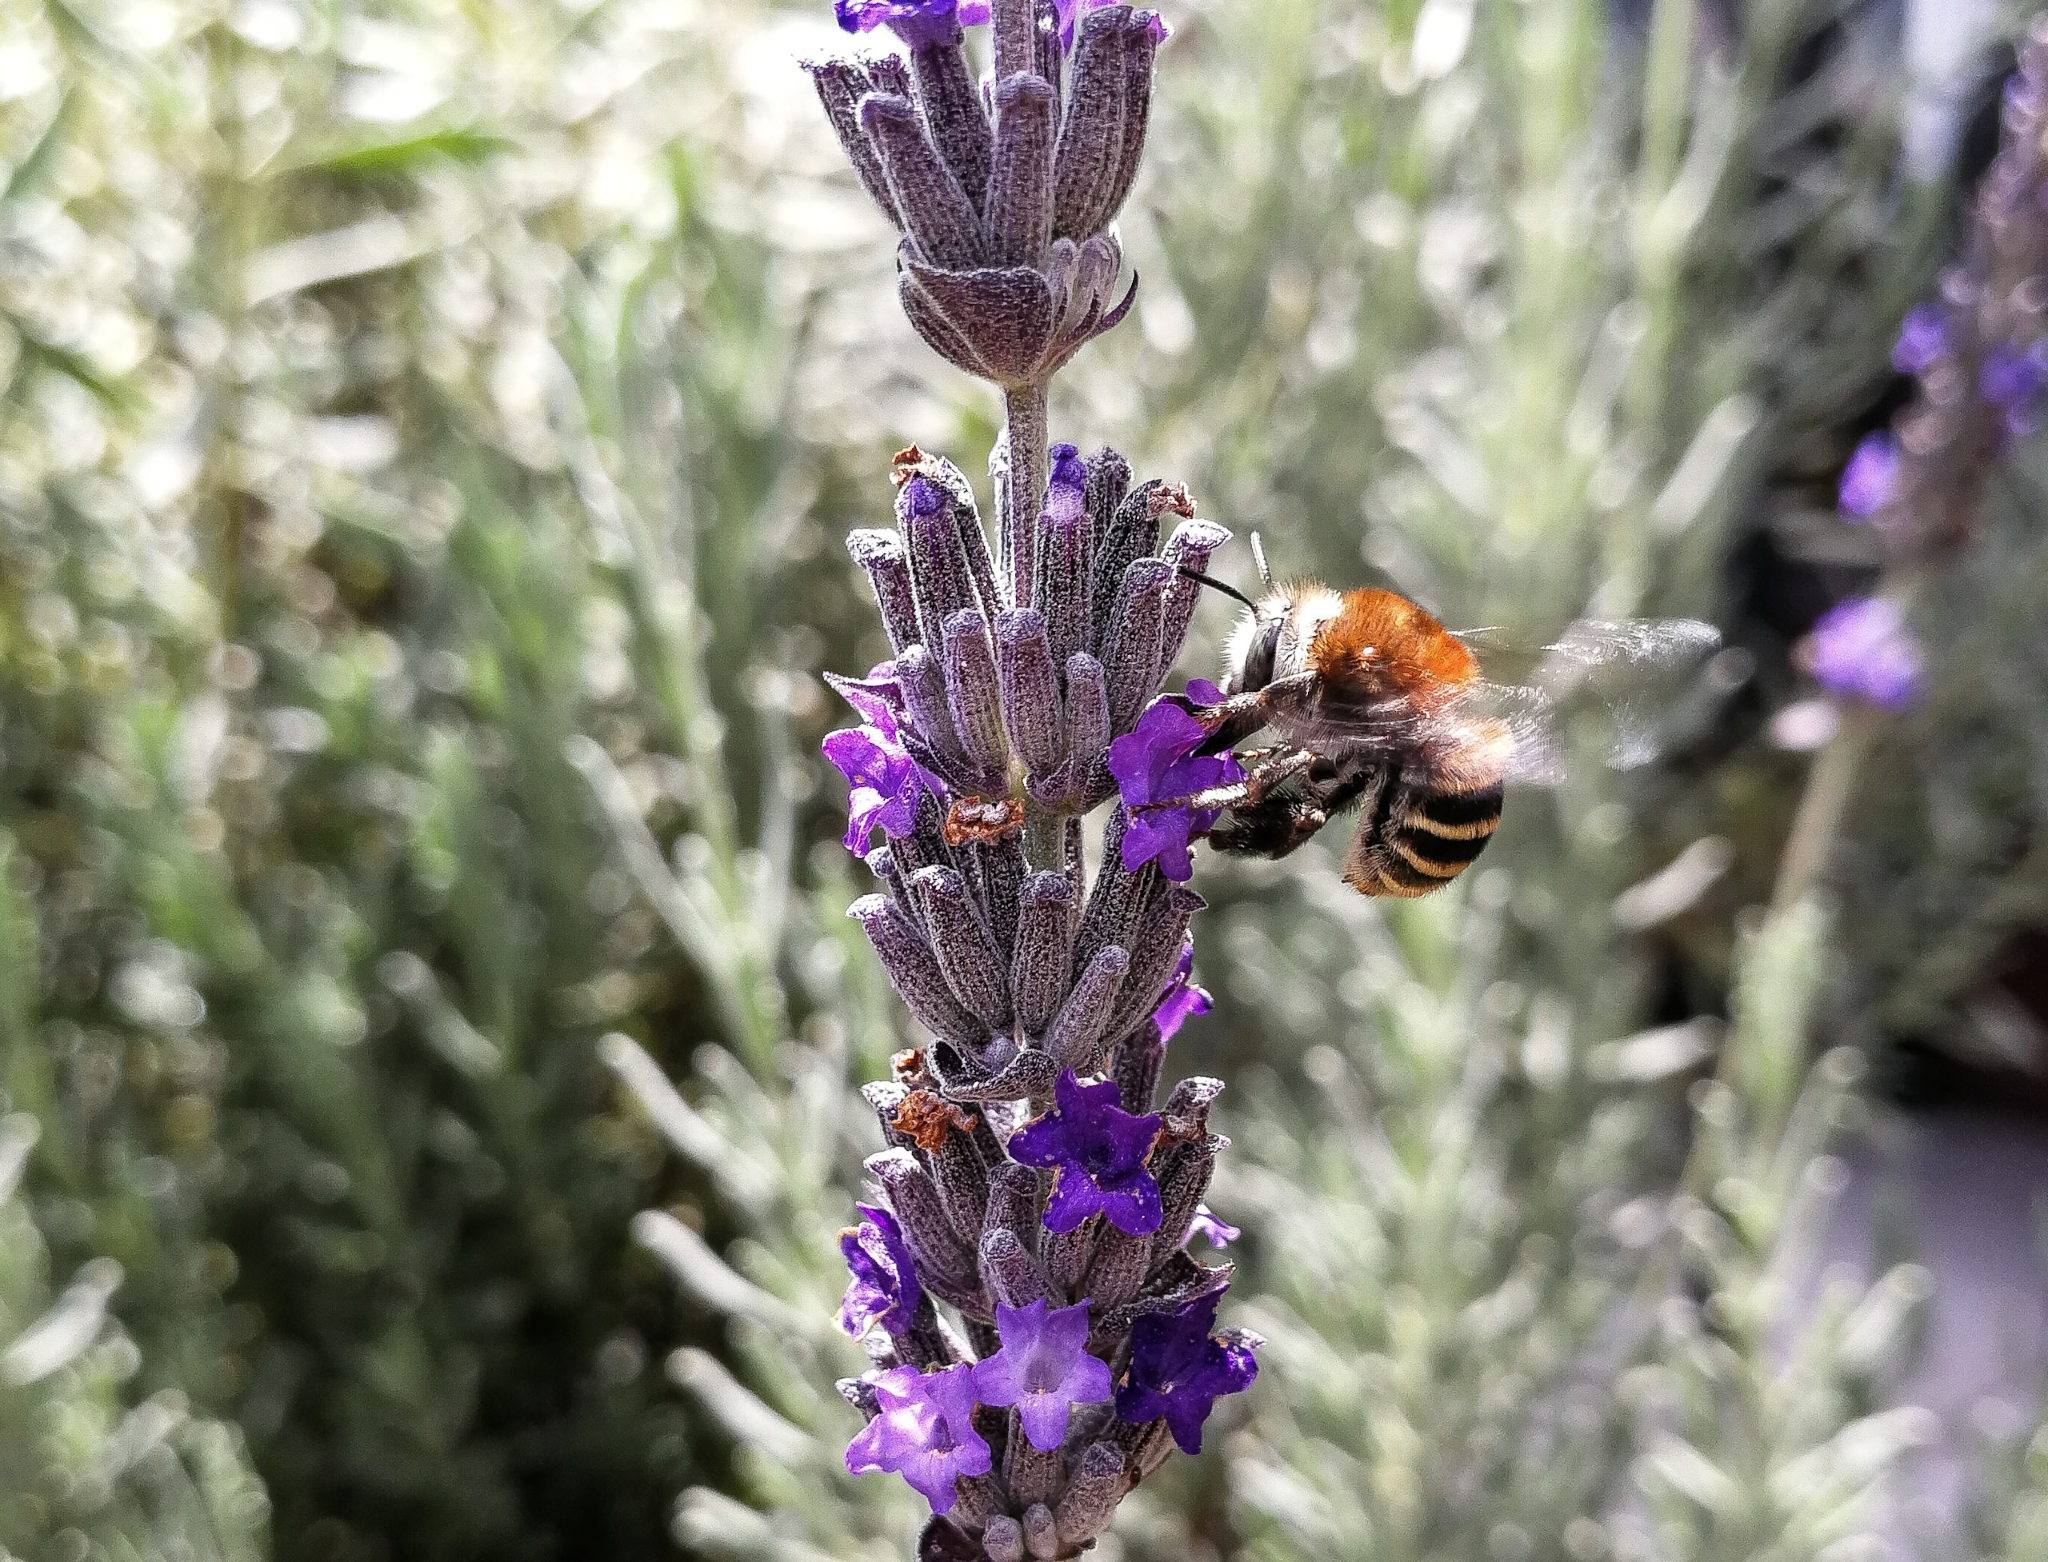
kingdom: Animalia
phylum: Arthropoda
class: Insecta
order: Hymenoptera
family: Apidae
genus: Anthophora
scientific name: Anthophora pilifrons
